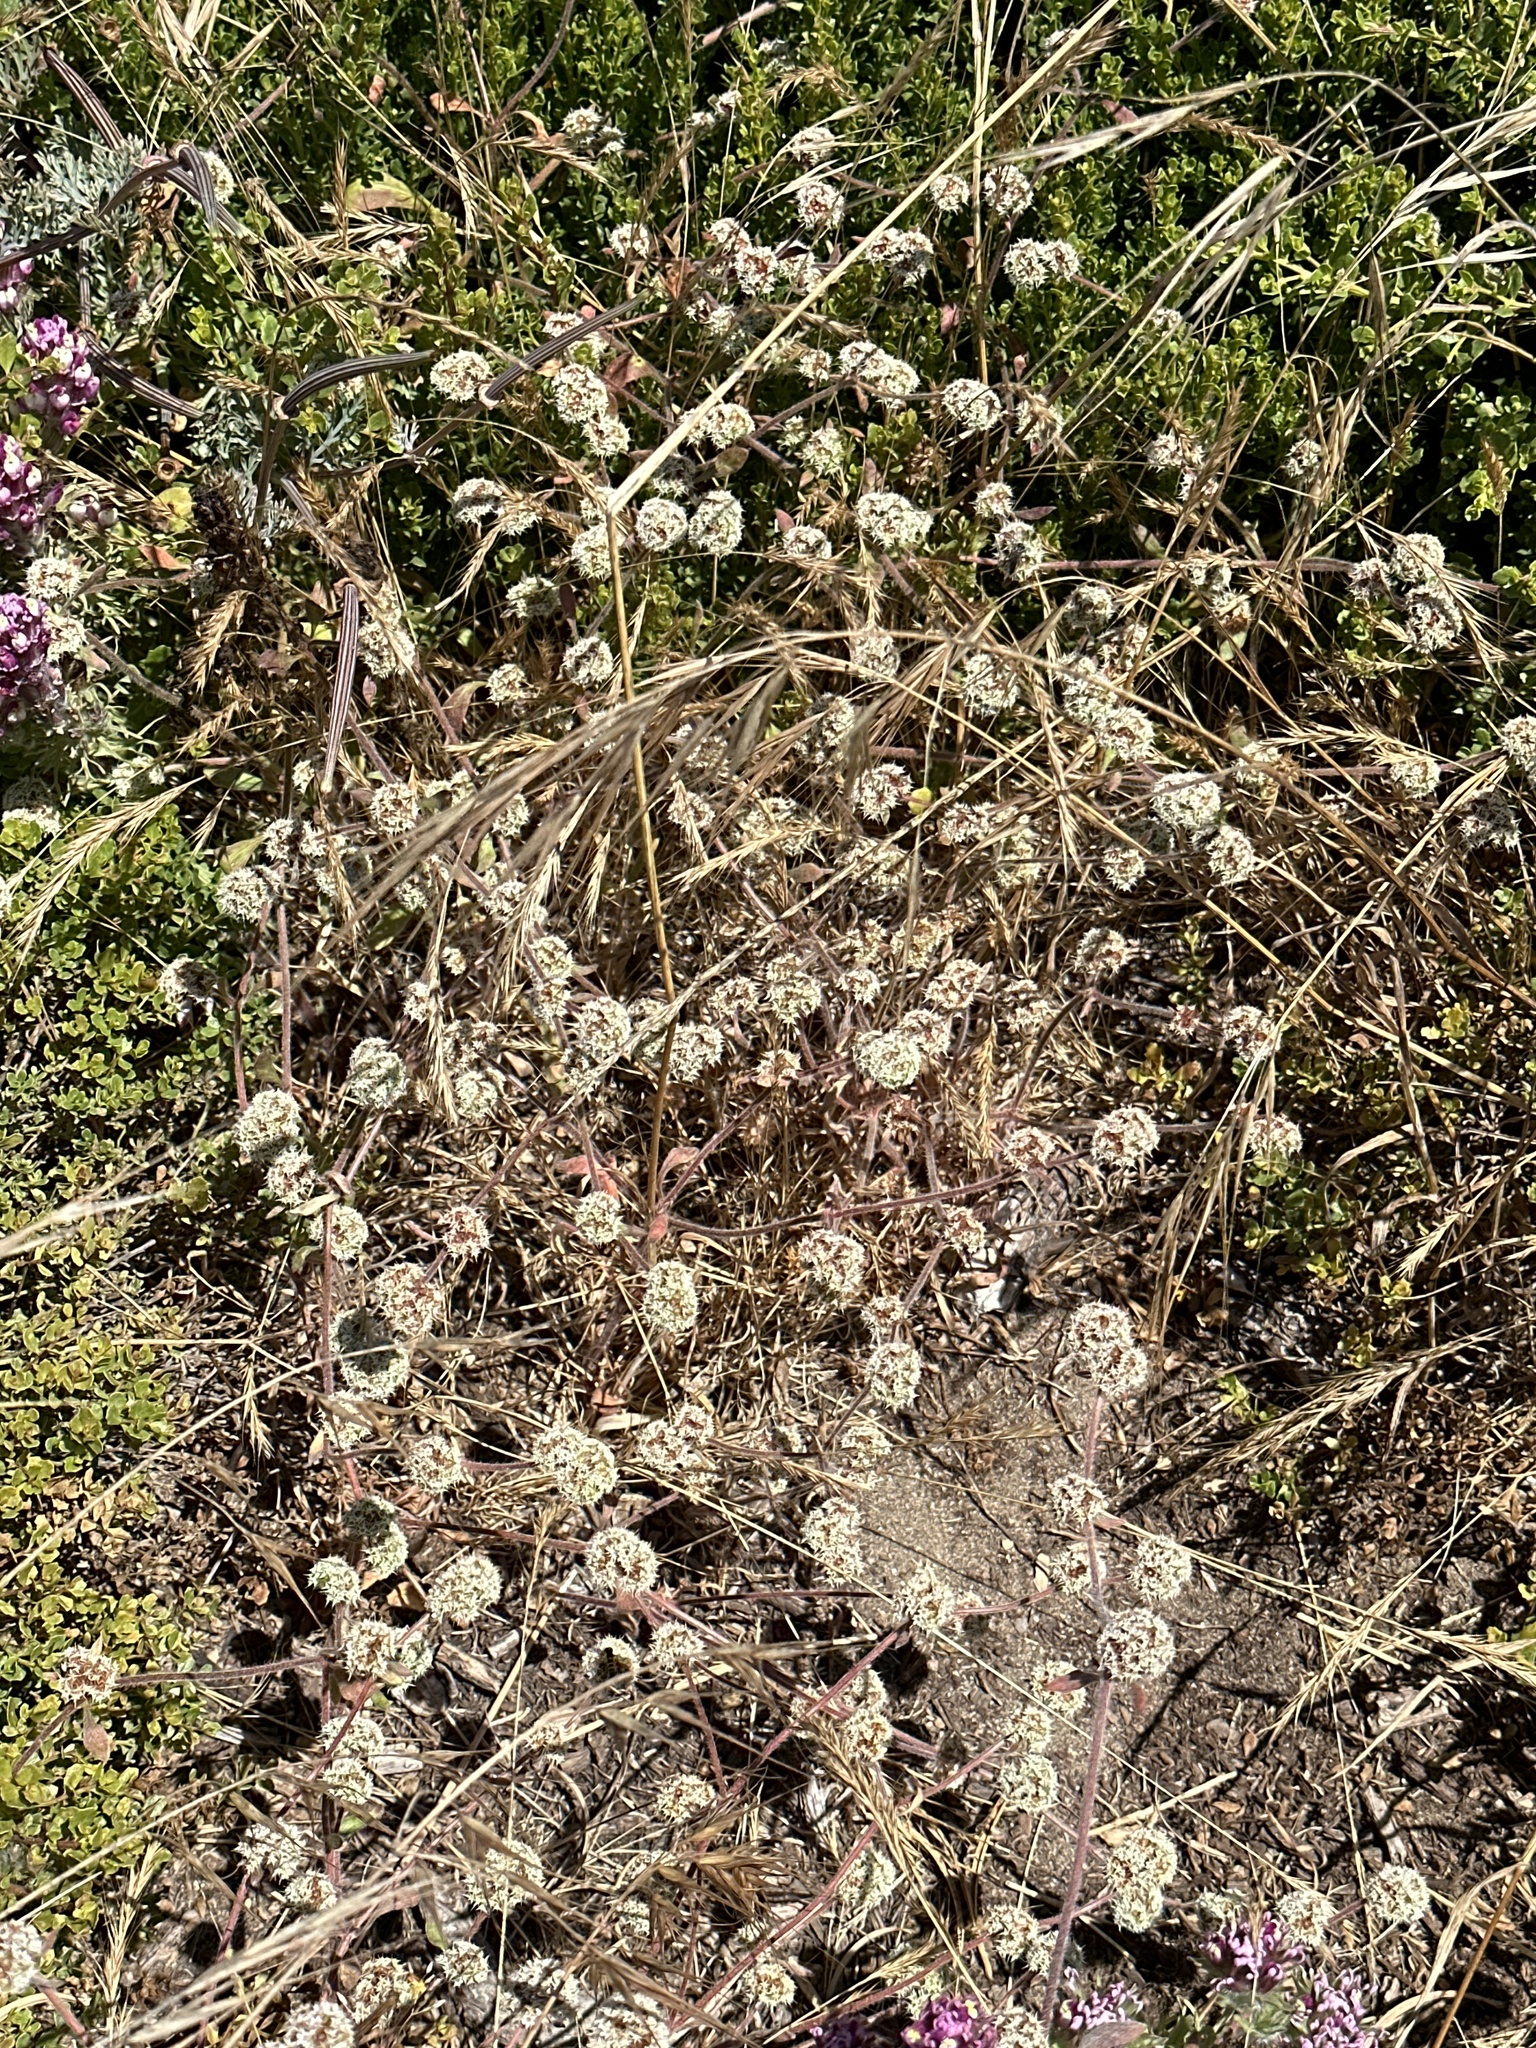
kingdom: Plantae
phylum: Tracheophyta
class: Magnoliopsida
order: Caryophyllales
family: Polygonaceae
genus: Chorizanthe
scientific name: Chorizanthe cuspidata
